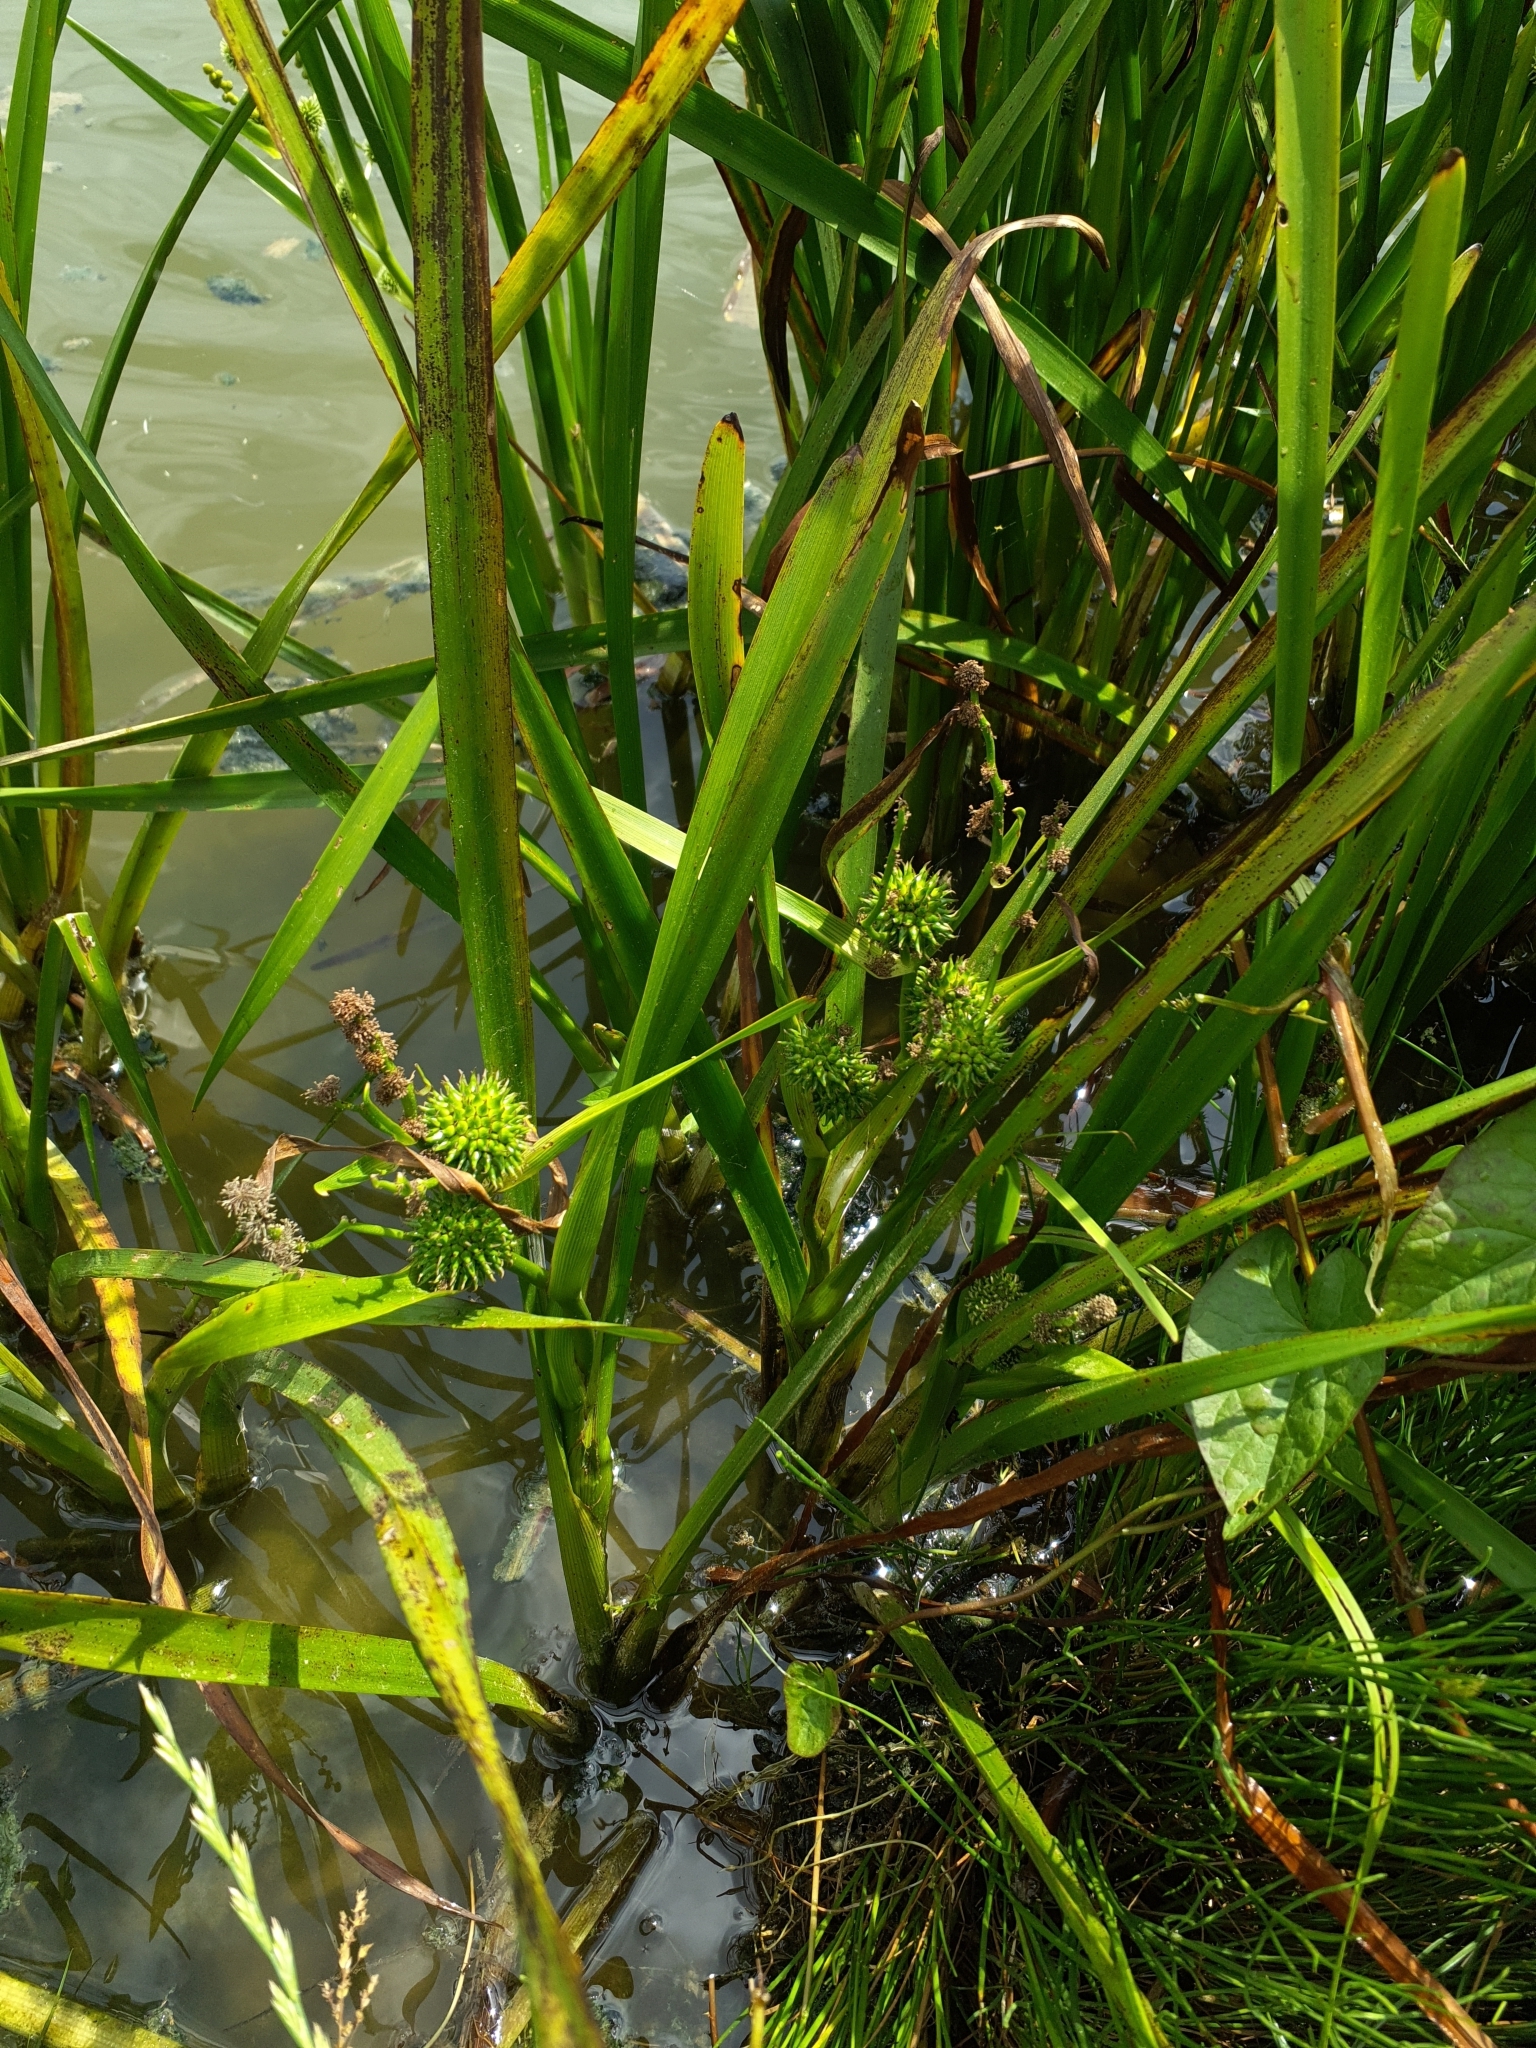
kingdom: Plantae
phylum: Tracheophyta
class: Liliopsida
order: Poales
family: Typhaceae
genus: Sparganium
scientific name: Sparganium erectum
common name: Branched bur-reed
